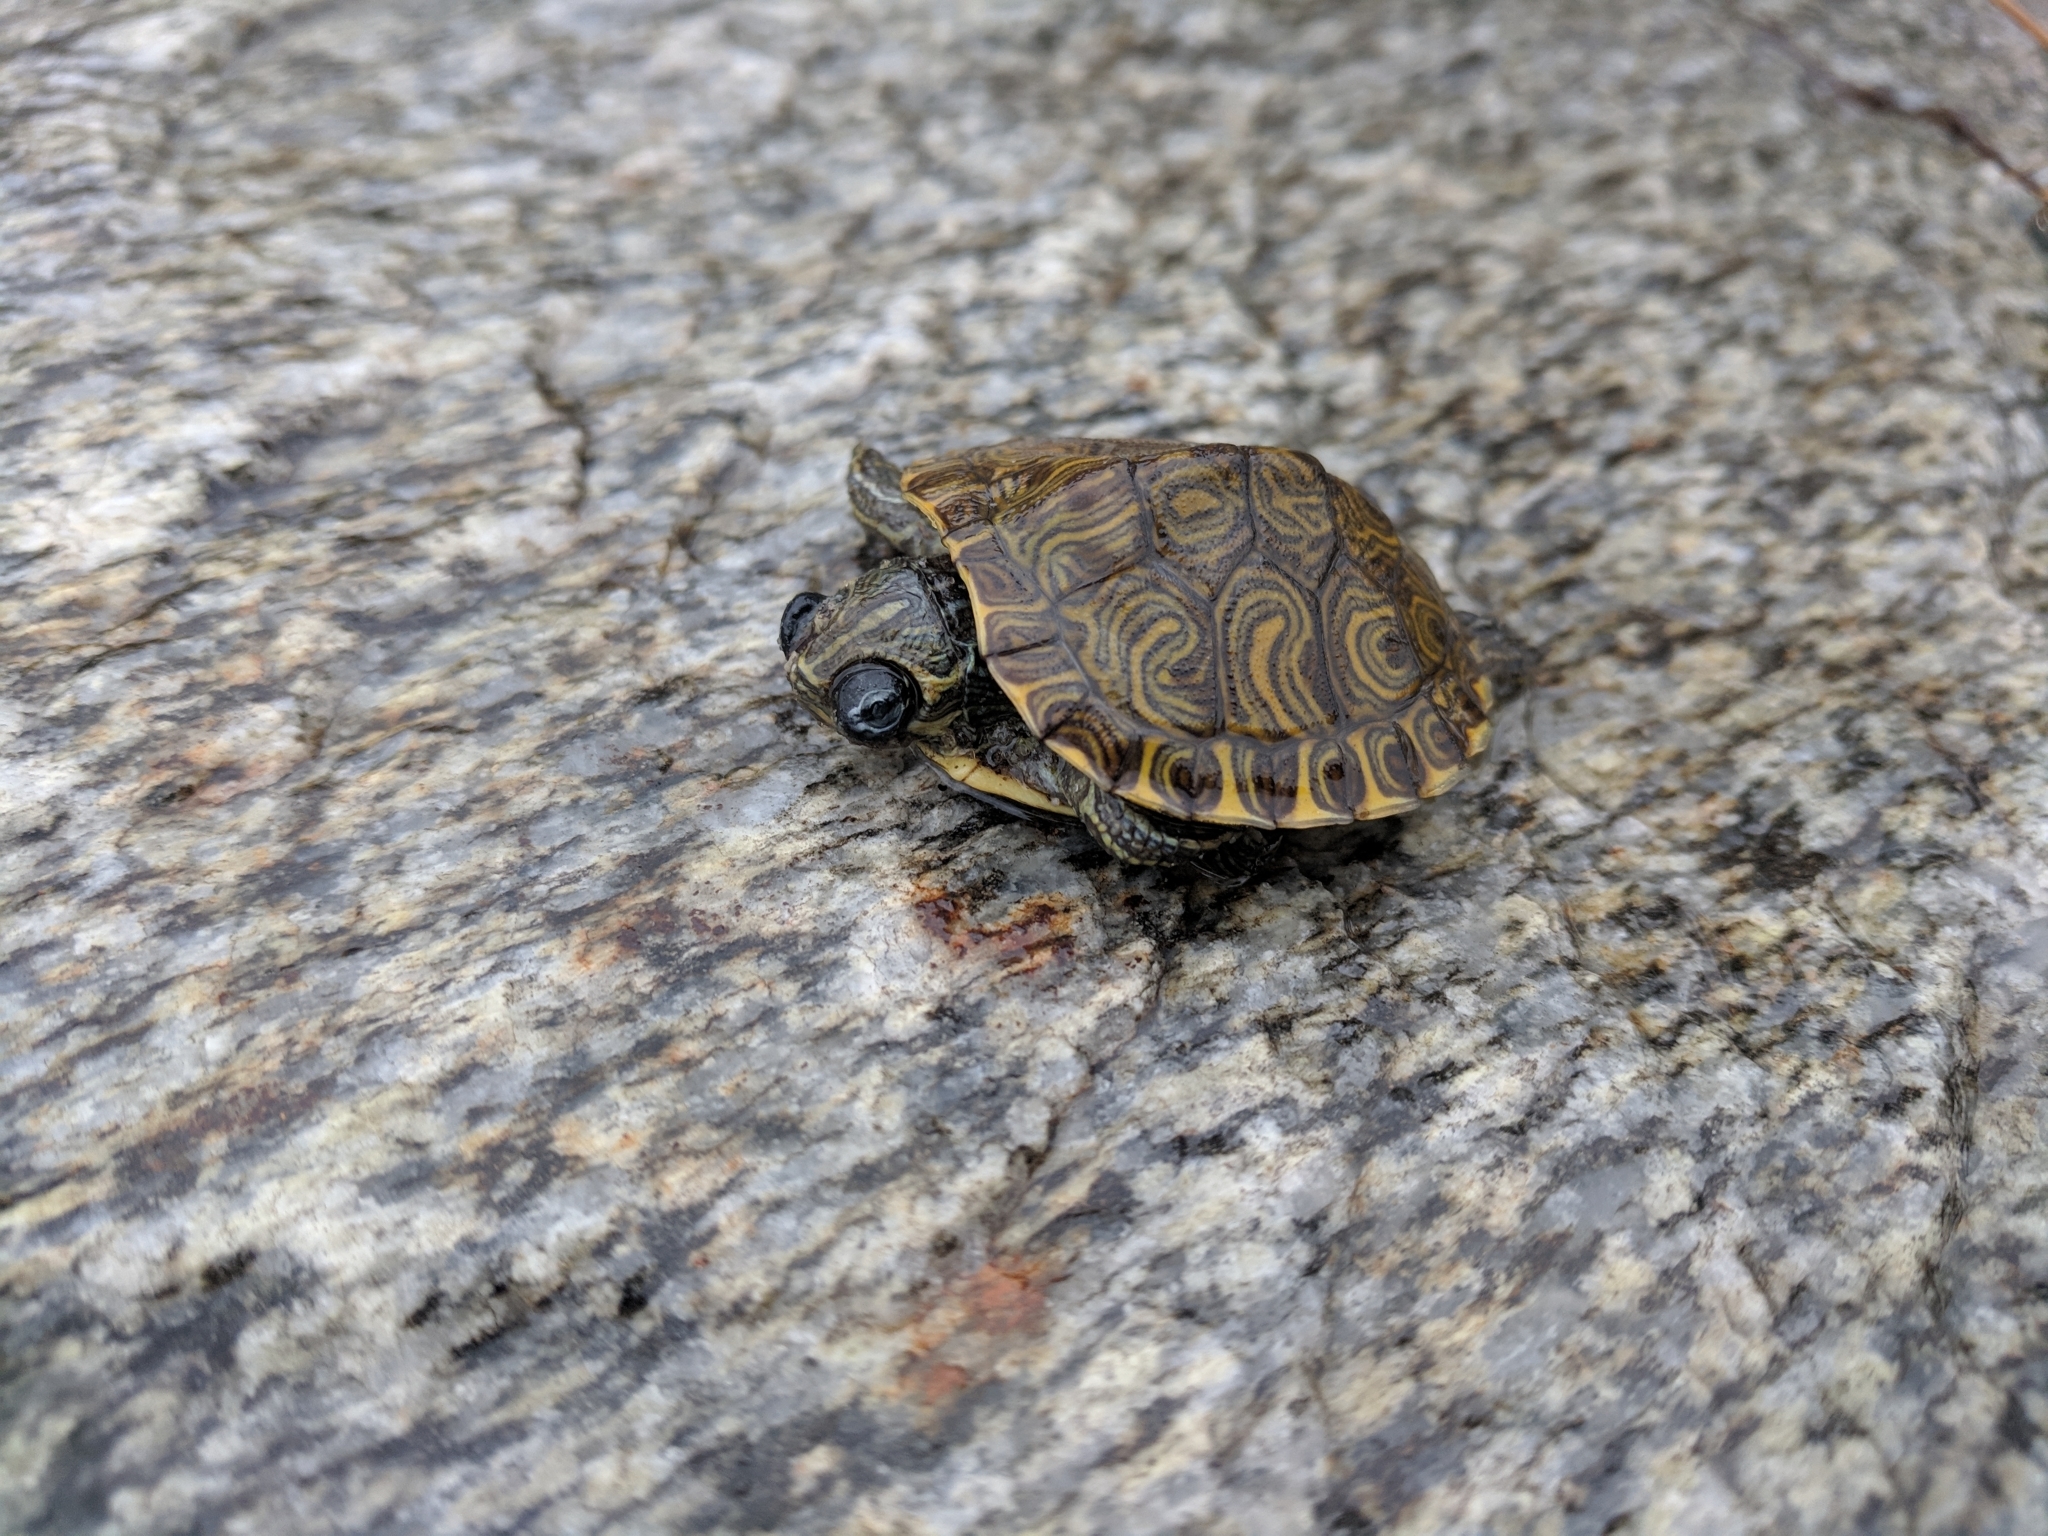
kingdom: Animalia
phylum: Chordata
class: Testudines
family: Emydidae
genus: Trachemys
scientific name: Trachemys scripta
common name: Slider
